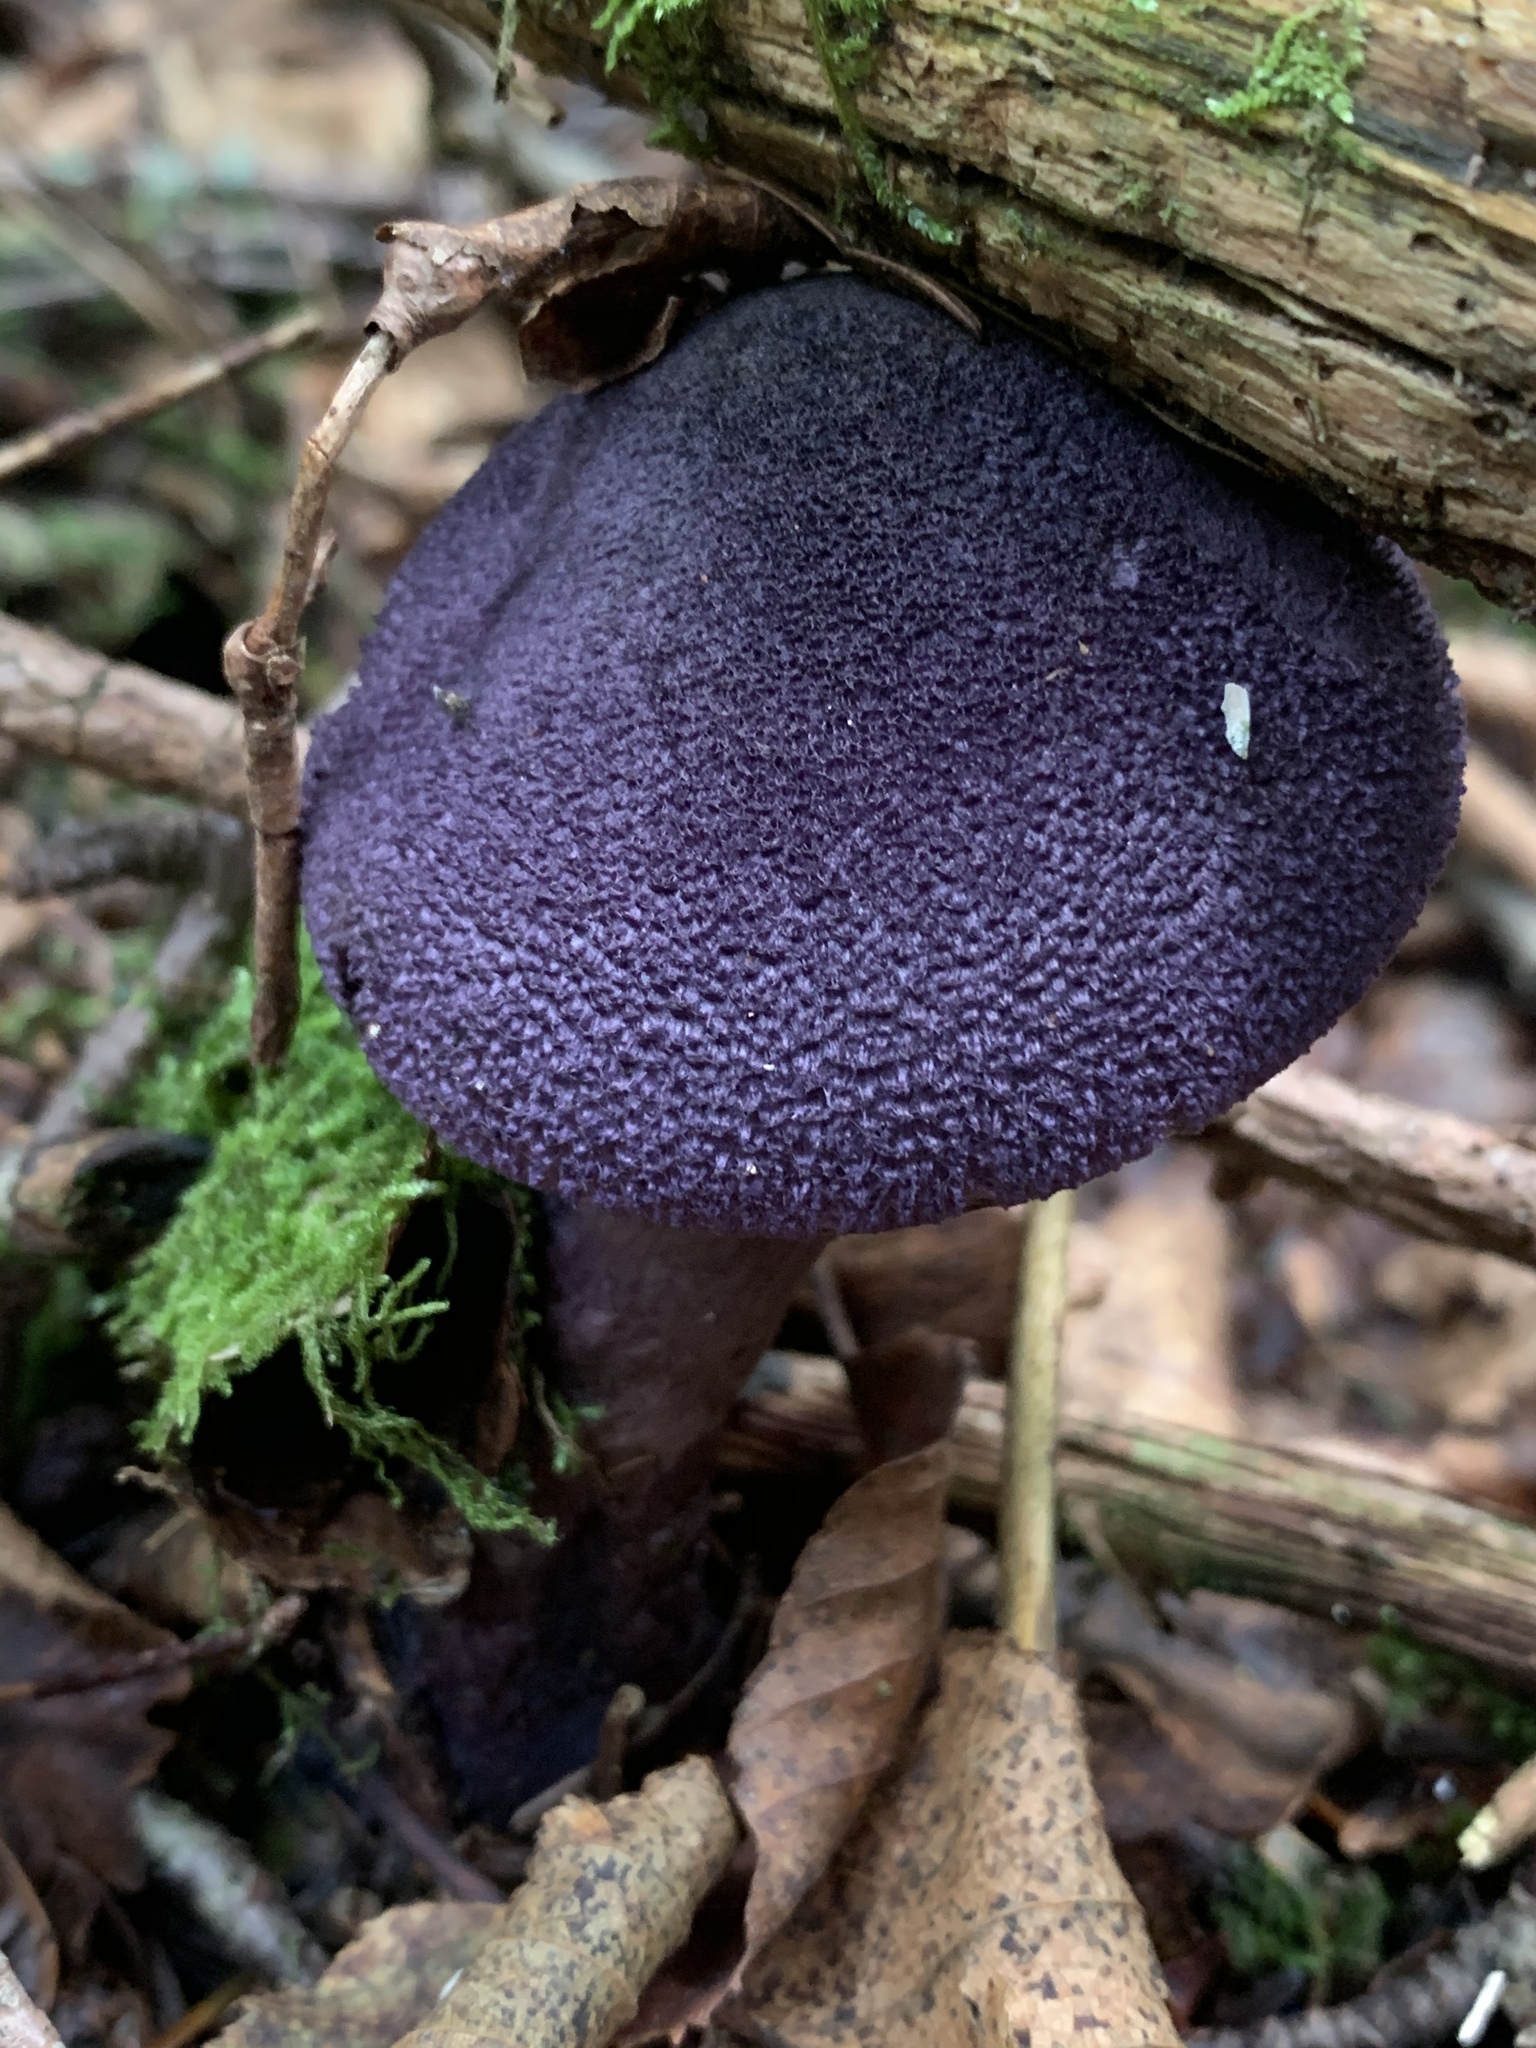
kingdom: Fungi
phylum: Basidiomycota
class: Agaricomycetes
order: Agaricales
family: Cortinariaceae
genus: Cortinarius
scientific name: Cortinarius violaceus
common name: Violet webcap
